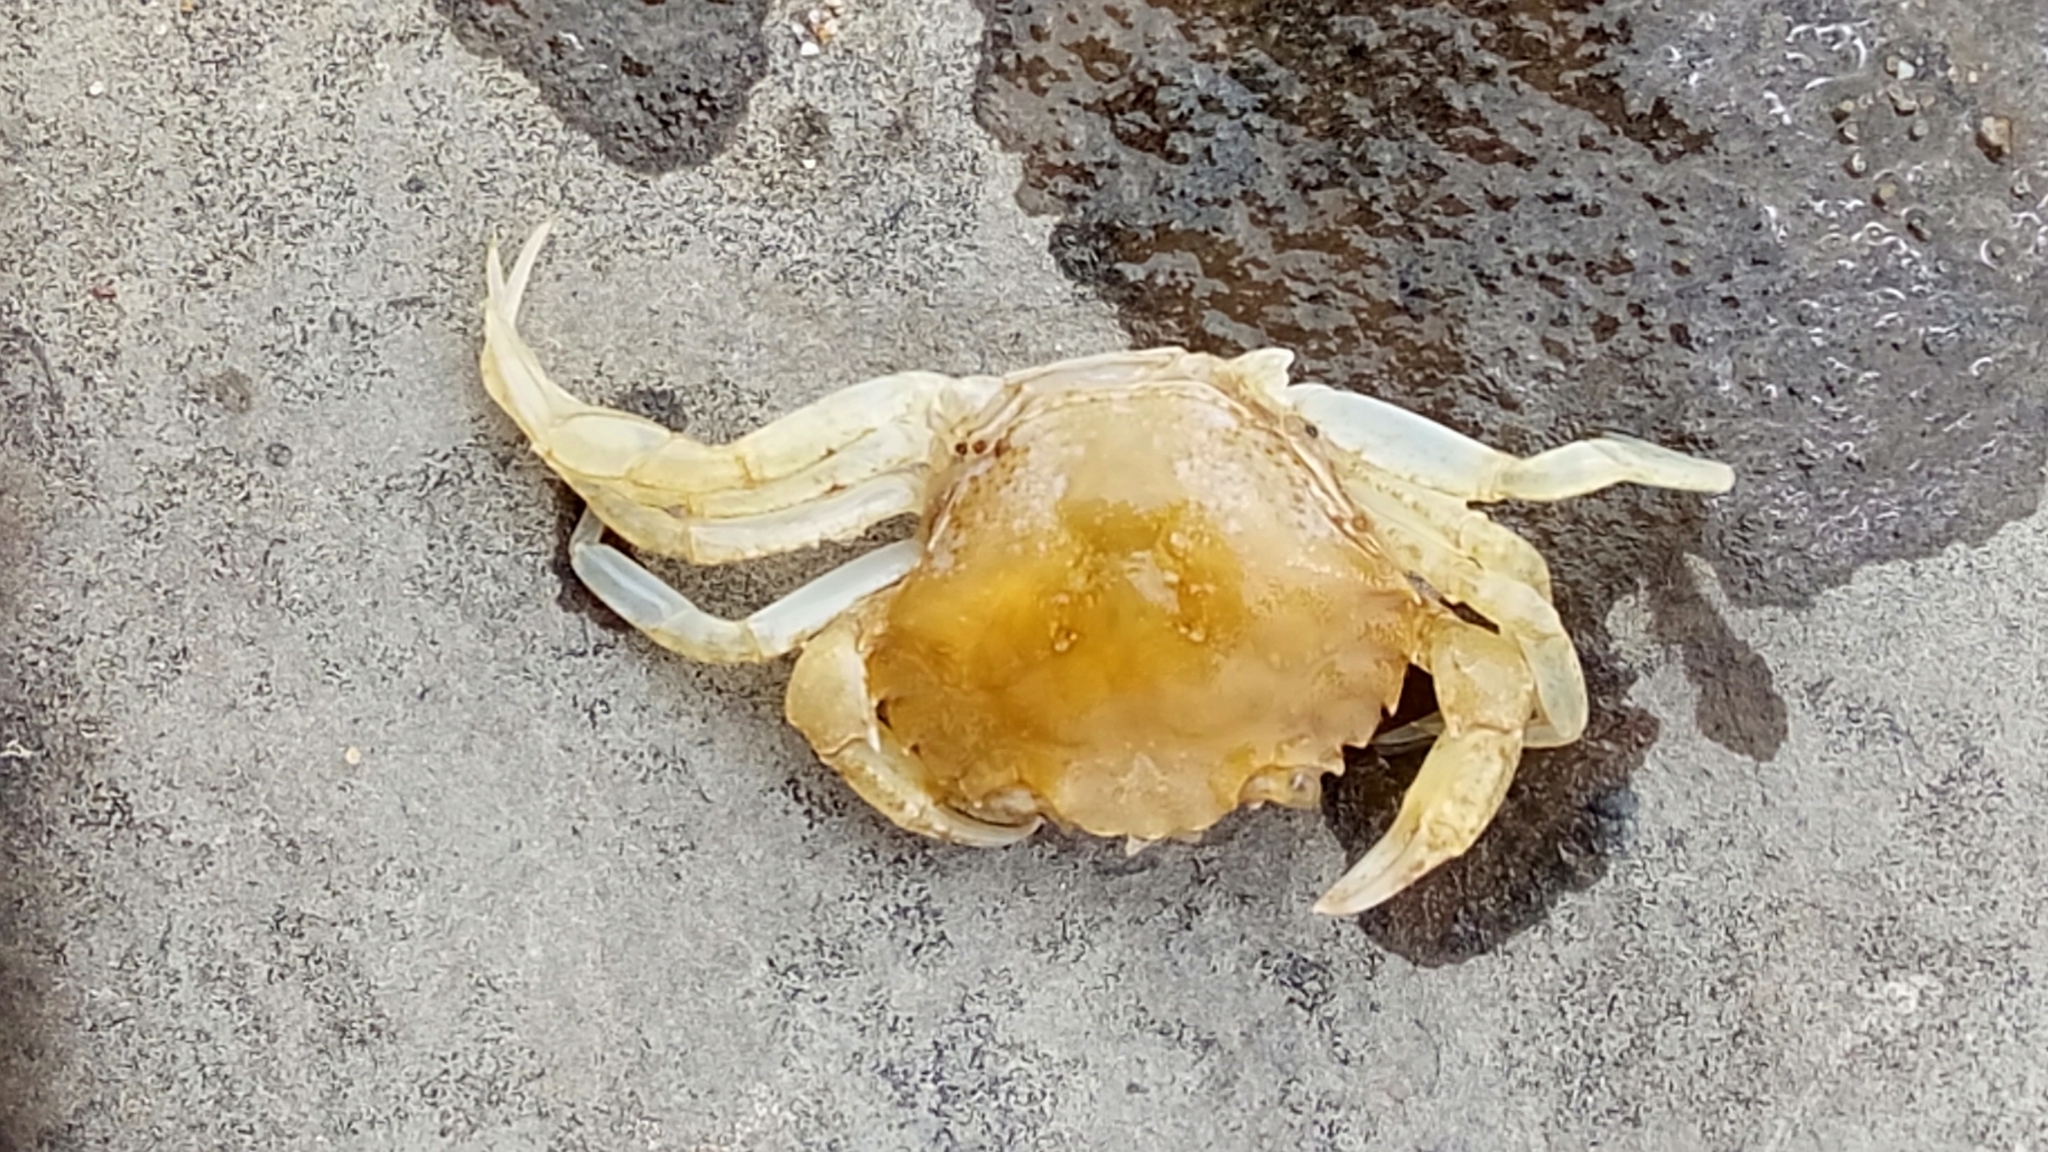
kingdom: Animalia
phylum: Arthropoda
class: Malacostraca
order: Decapoda
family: Carcinidae
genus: Carcinus
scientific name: Carcinus maenas
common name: European green crab
